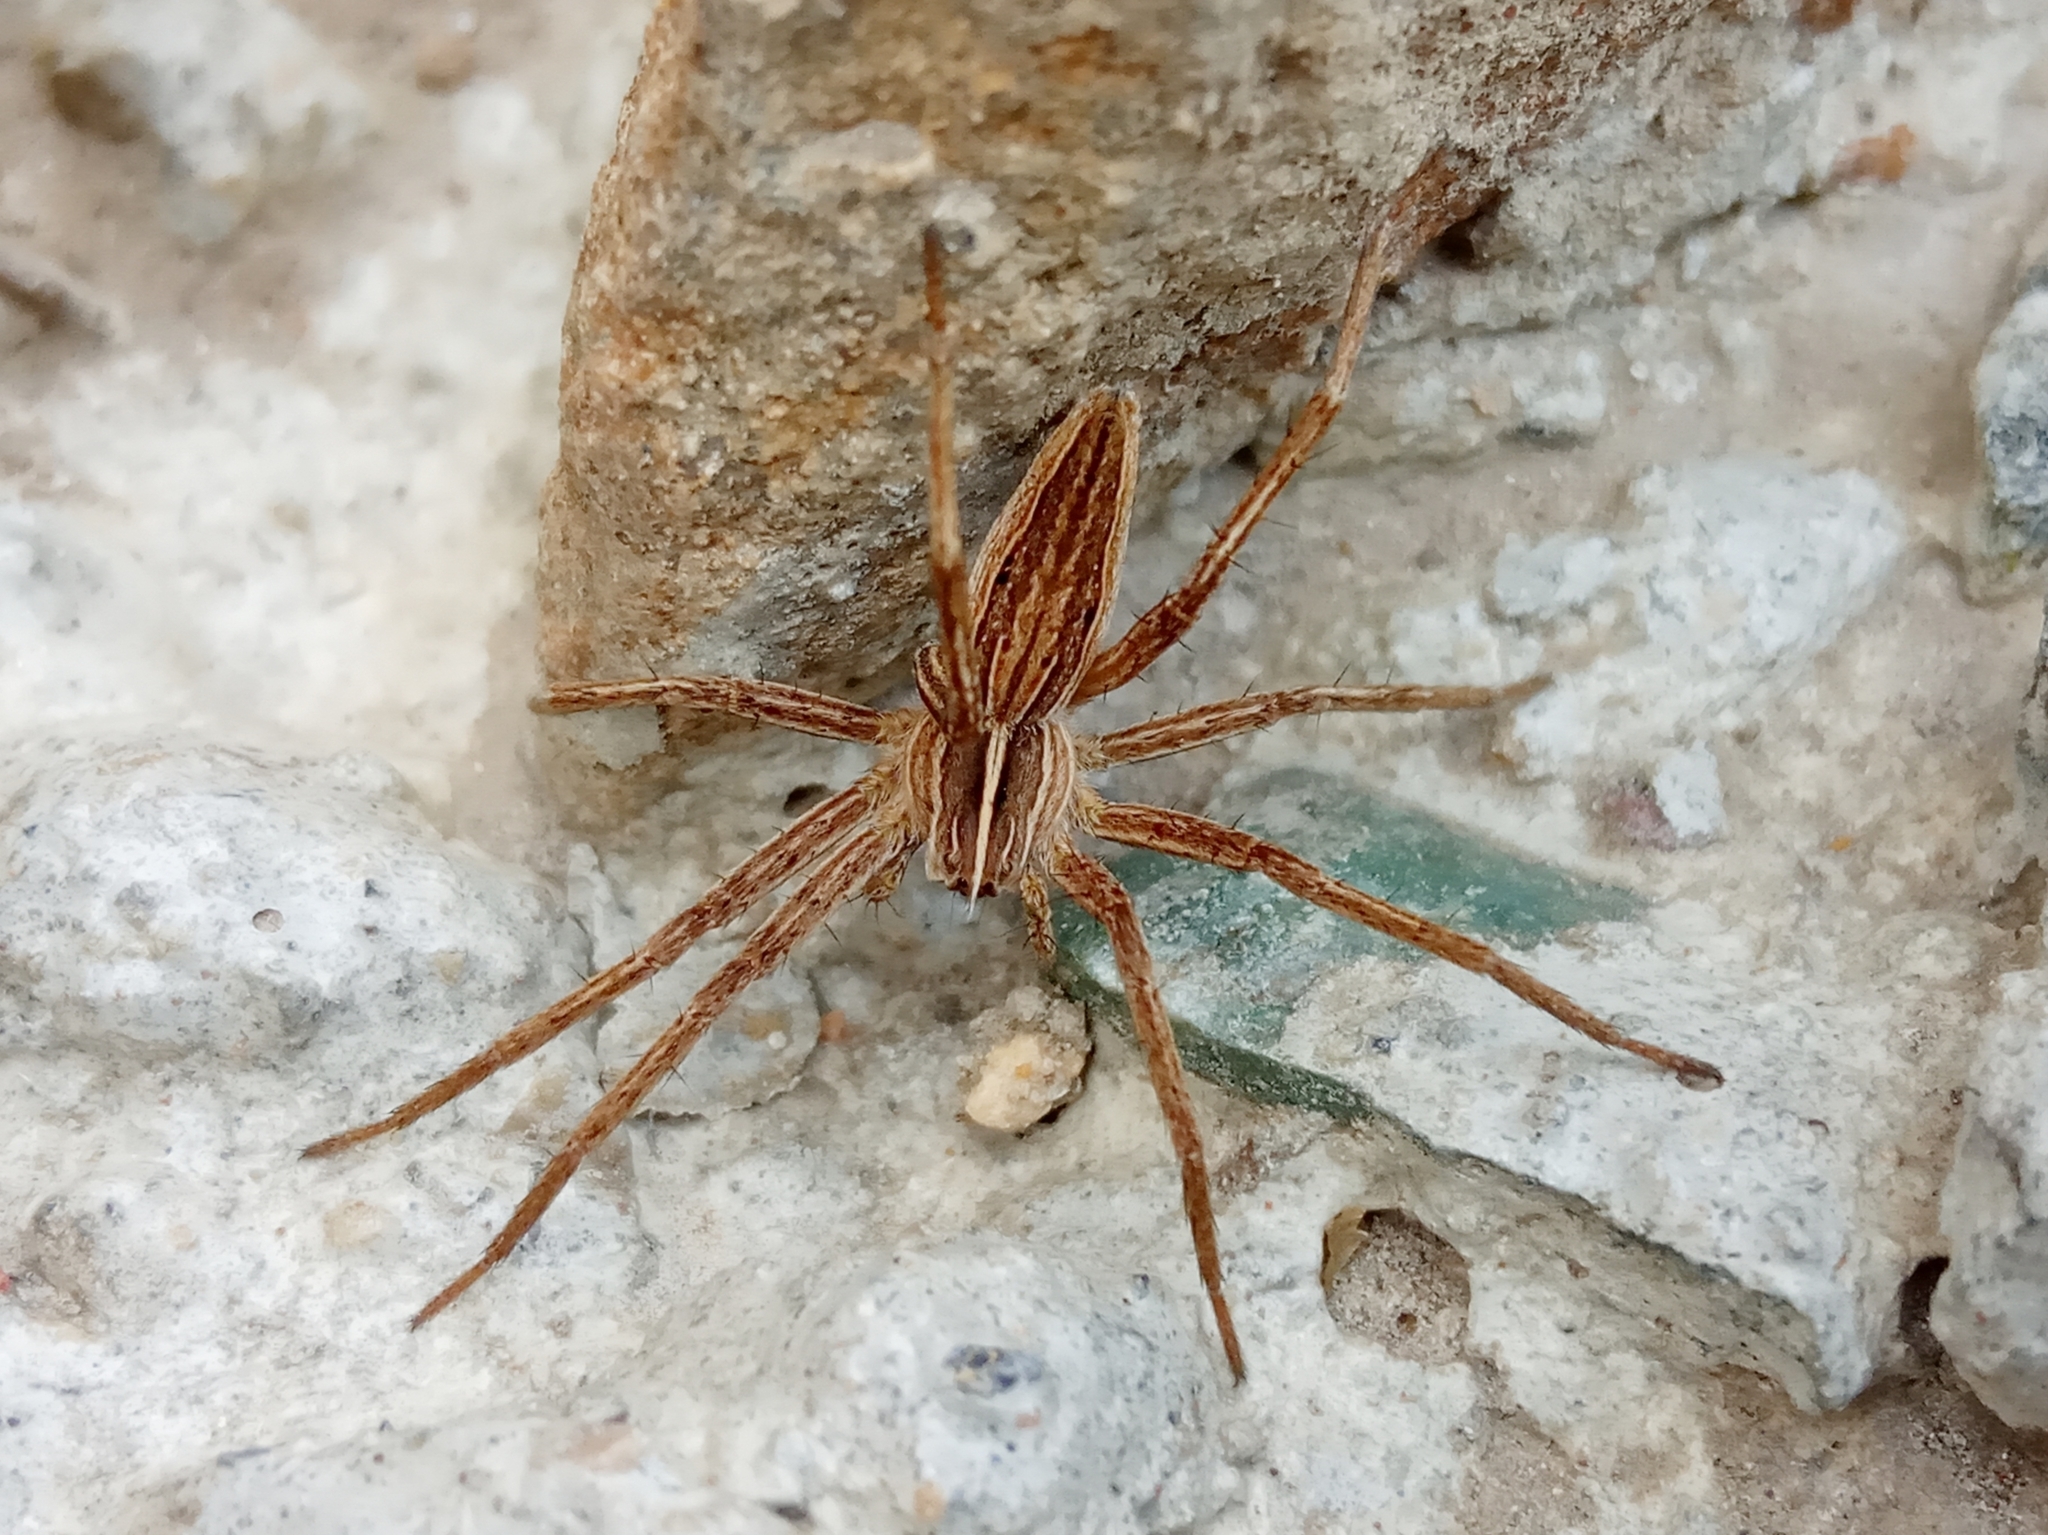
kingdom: Animalia
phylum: Arthropoda
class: Arachnida
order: Araneae
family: Pisauridae
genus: Pisaura
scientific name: Pisaura
